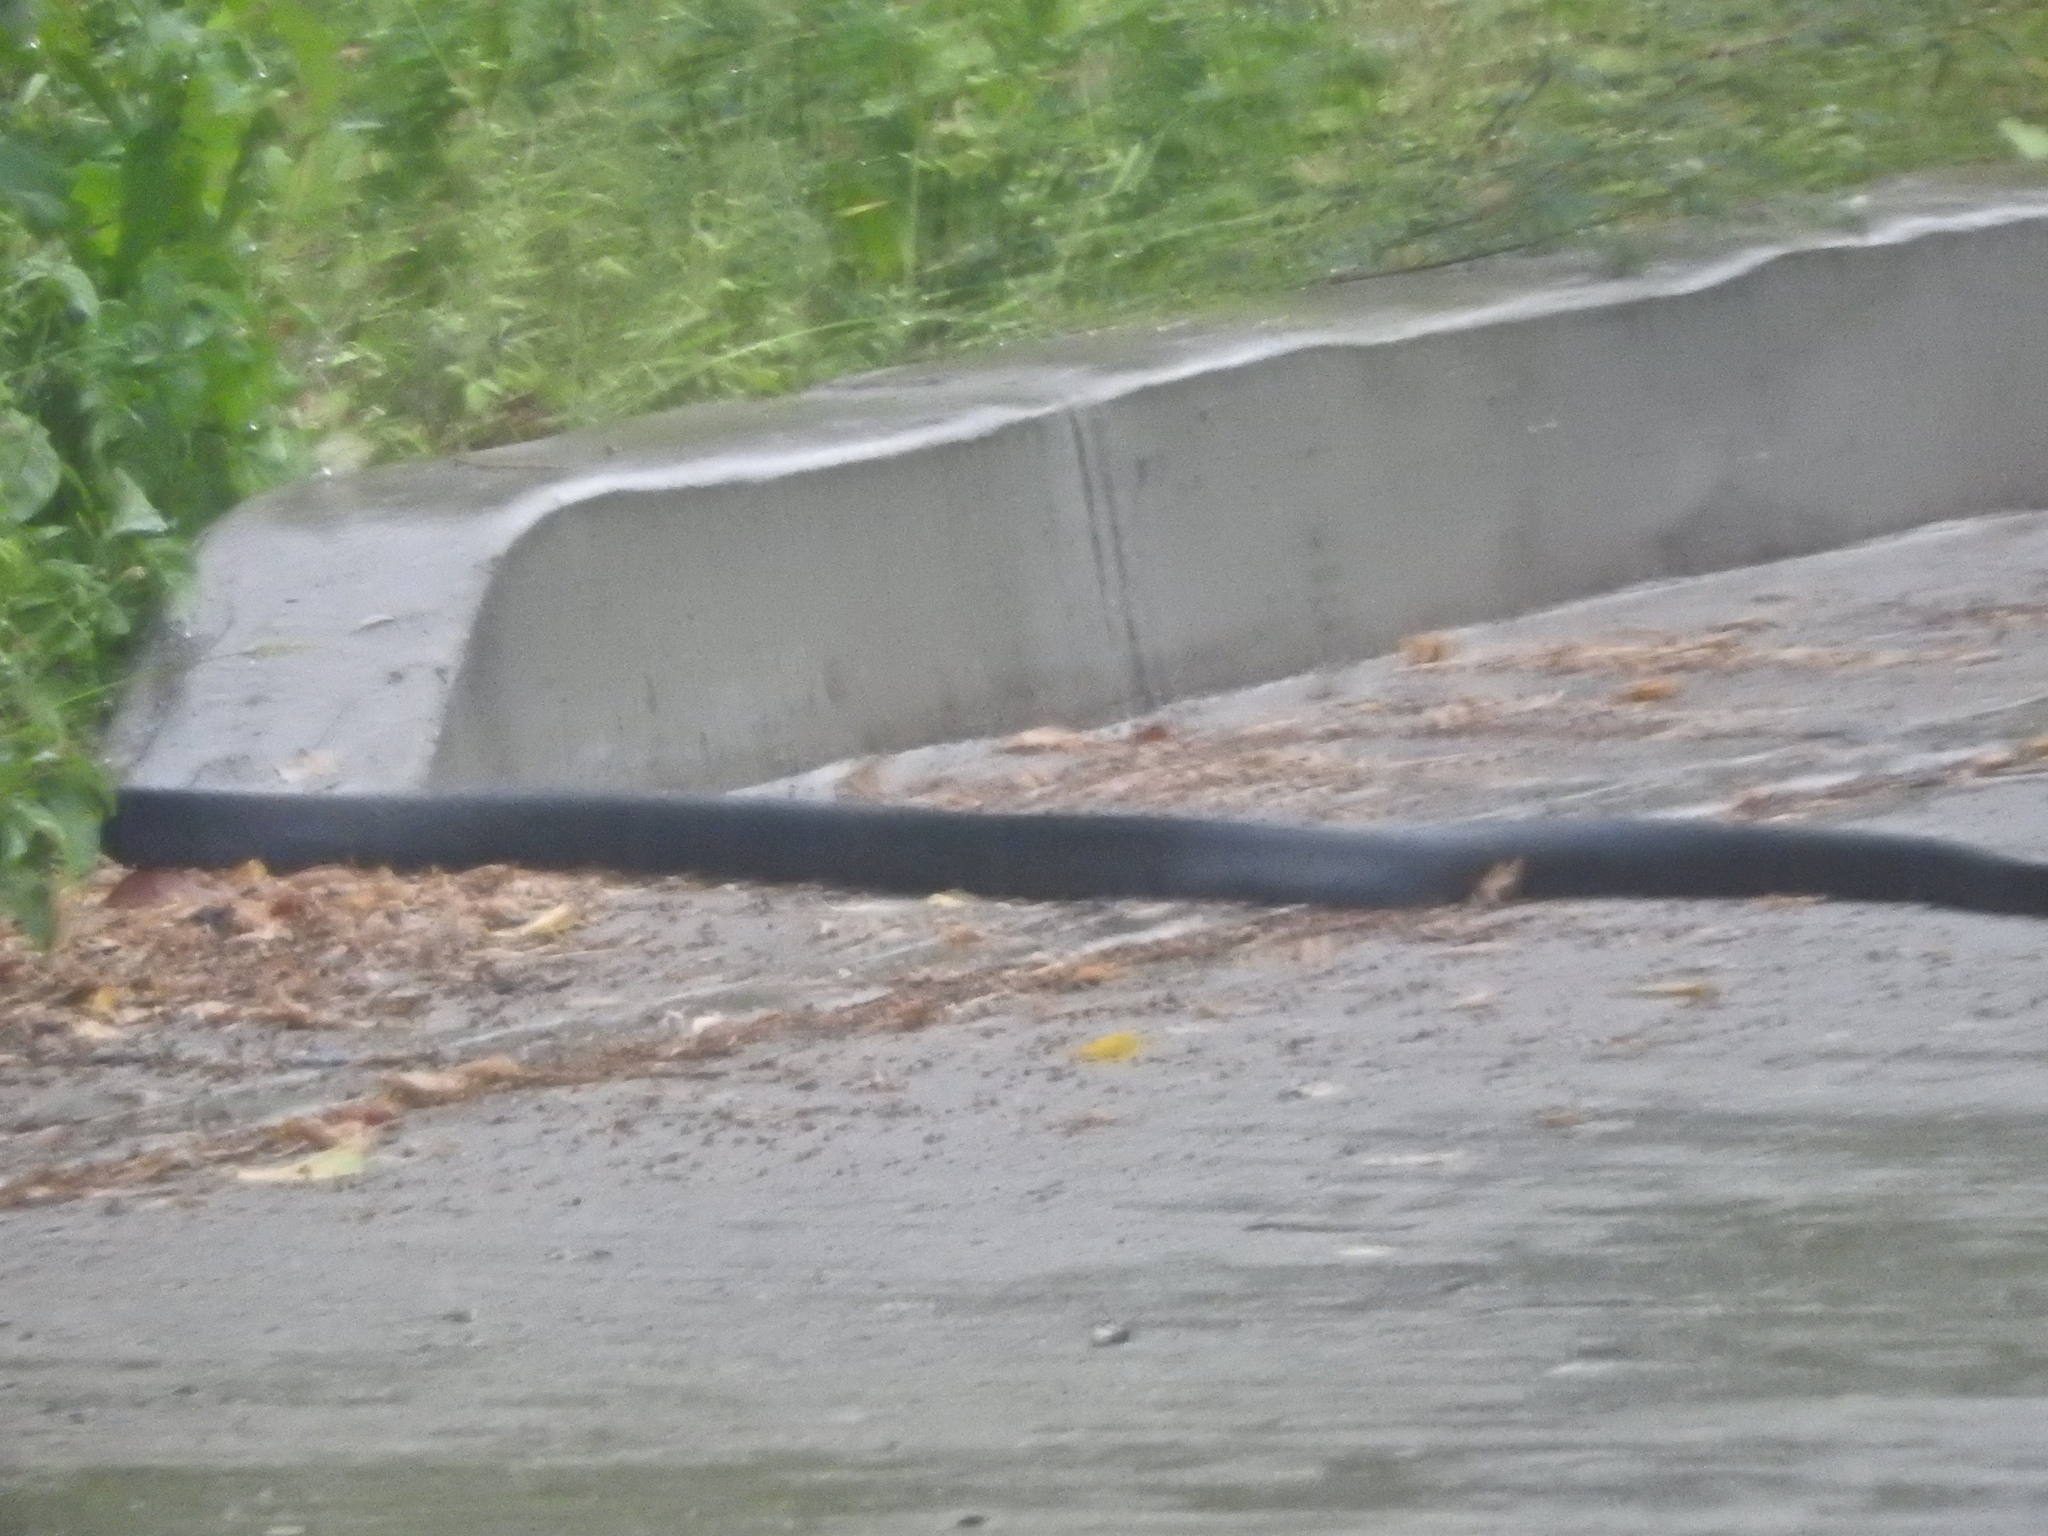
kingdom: Animalia
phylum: Chordata
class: Squamata
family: Colubridae
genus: Drymarchon
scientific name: Drymarchon melanurus
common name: Central american indigo snake
